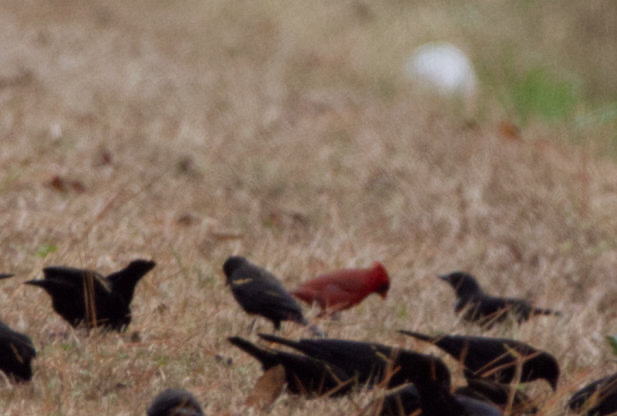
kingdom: Animalia
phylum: Chordata
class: Aves
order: Passeriformes
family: Cardinalidae
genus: Cardinalis
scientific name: Cardinalis cardinalis
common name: Northern cardinal
